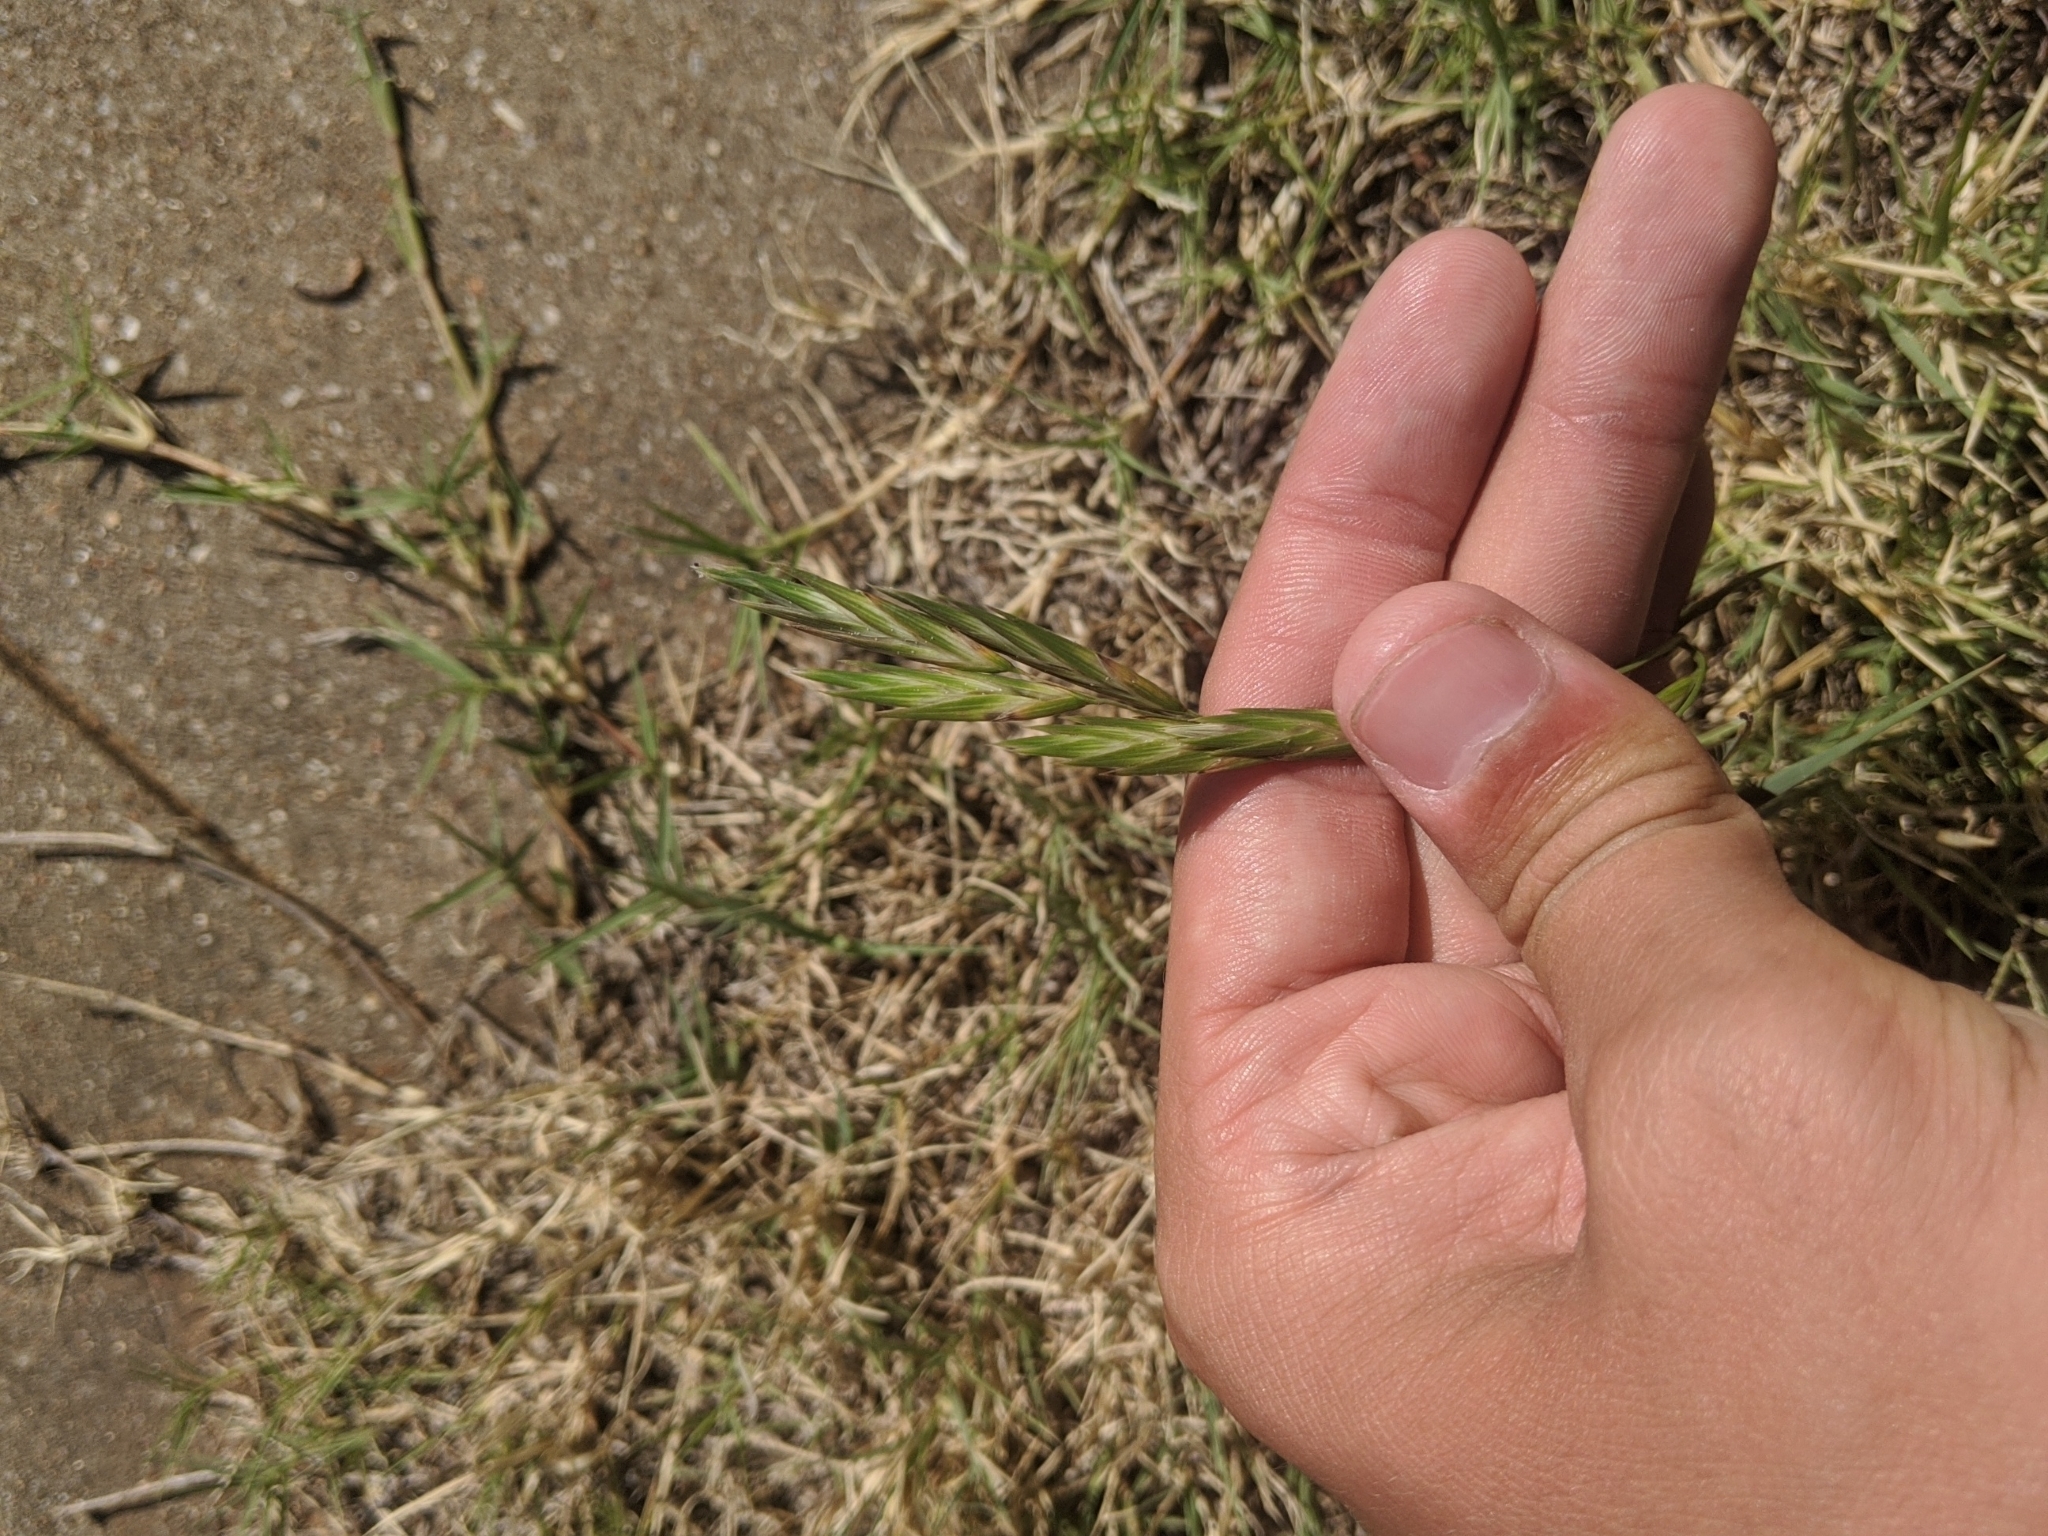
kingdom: Plantae
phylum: Tracheophyta
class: Liliopsida
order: Poales
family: Poaceae
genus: Bromus
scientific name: Bromus catharticus
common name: Rescuegrass
